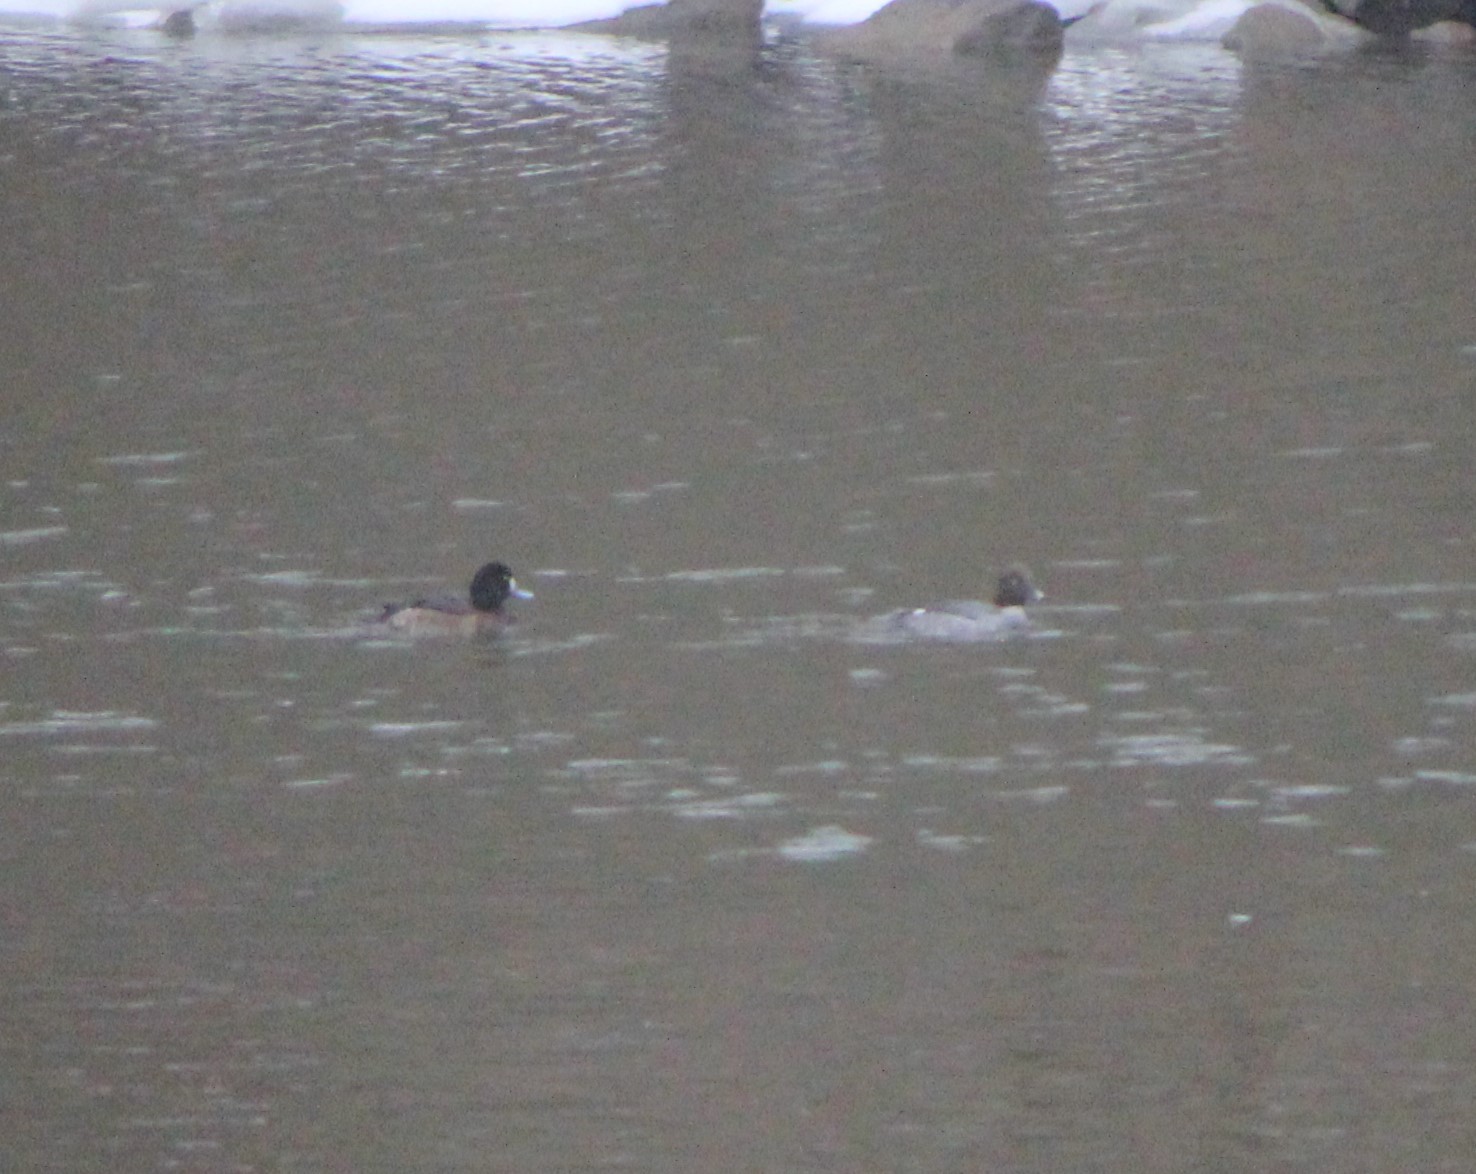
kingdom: Animalia
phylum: Chordata
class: Aves
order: Anseriformes
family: Anatidae
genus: Aythya
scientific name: Aythya marila
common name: Greater scaup
